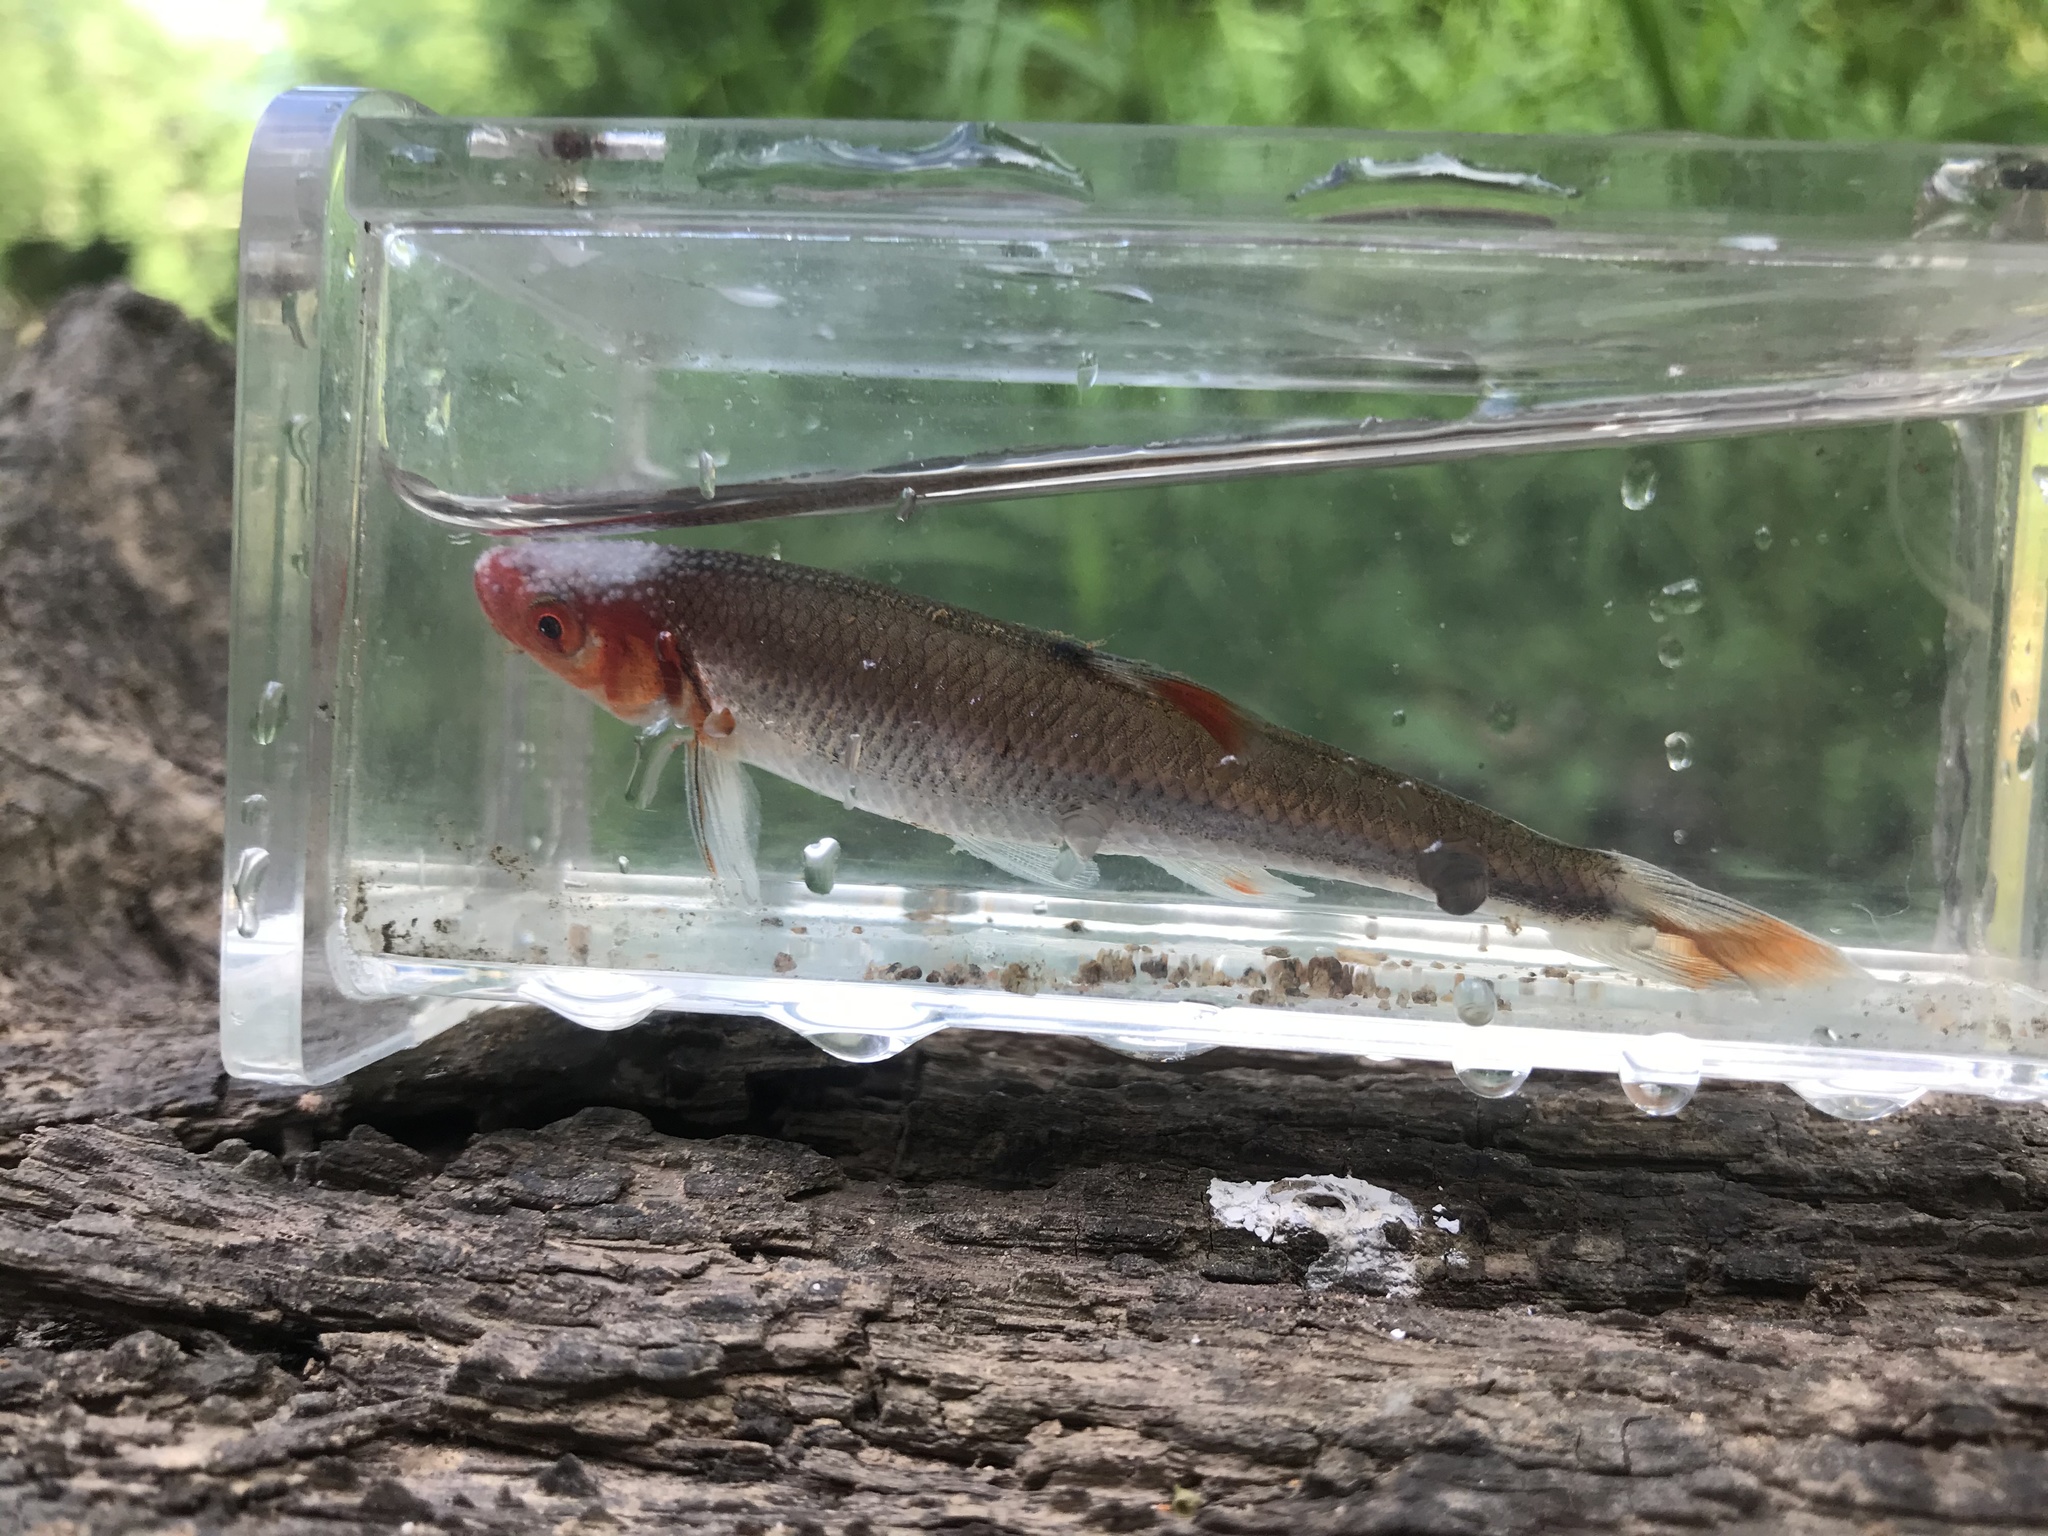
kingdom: Animalia
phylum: Chordata
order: Cypriniformes
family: Cyprinidae
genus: Lythrurus
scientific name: Lythrurus matutinus
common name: Pinewoods shiner
